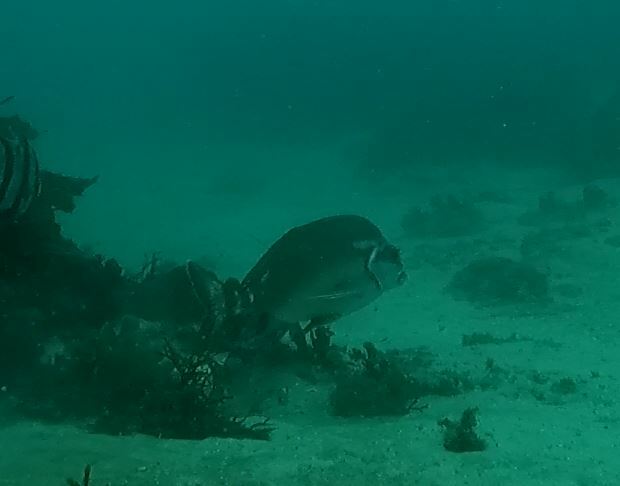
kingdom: Animalia
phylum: Chordata
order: Perciformes
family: Latridae
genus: Morwong
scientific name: Morwong fuscus
